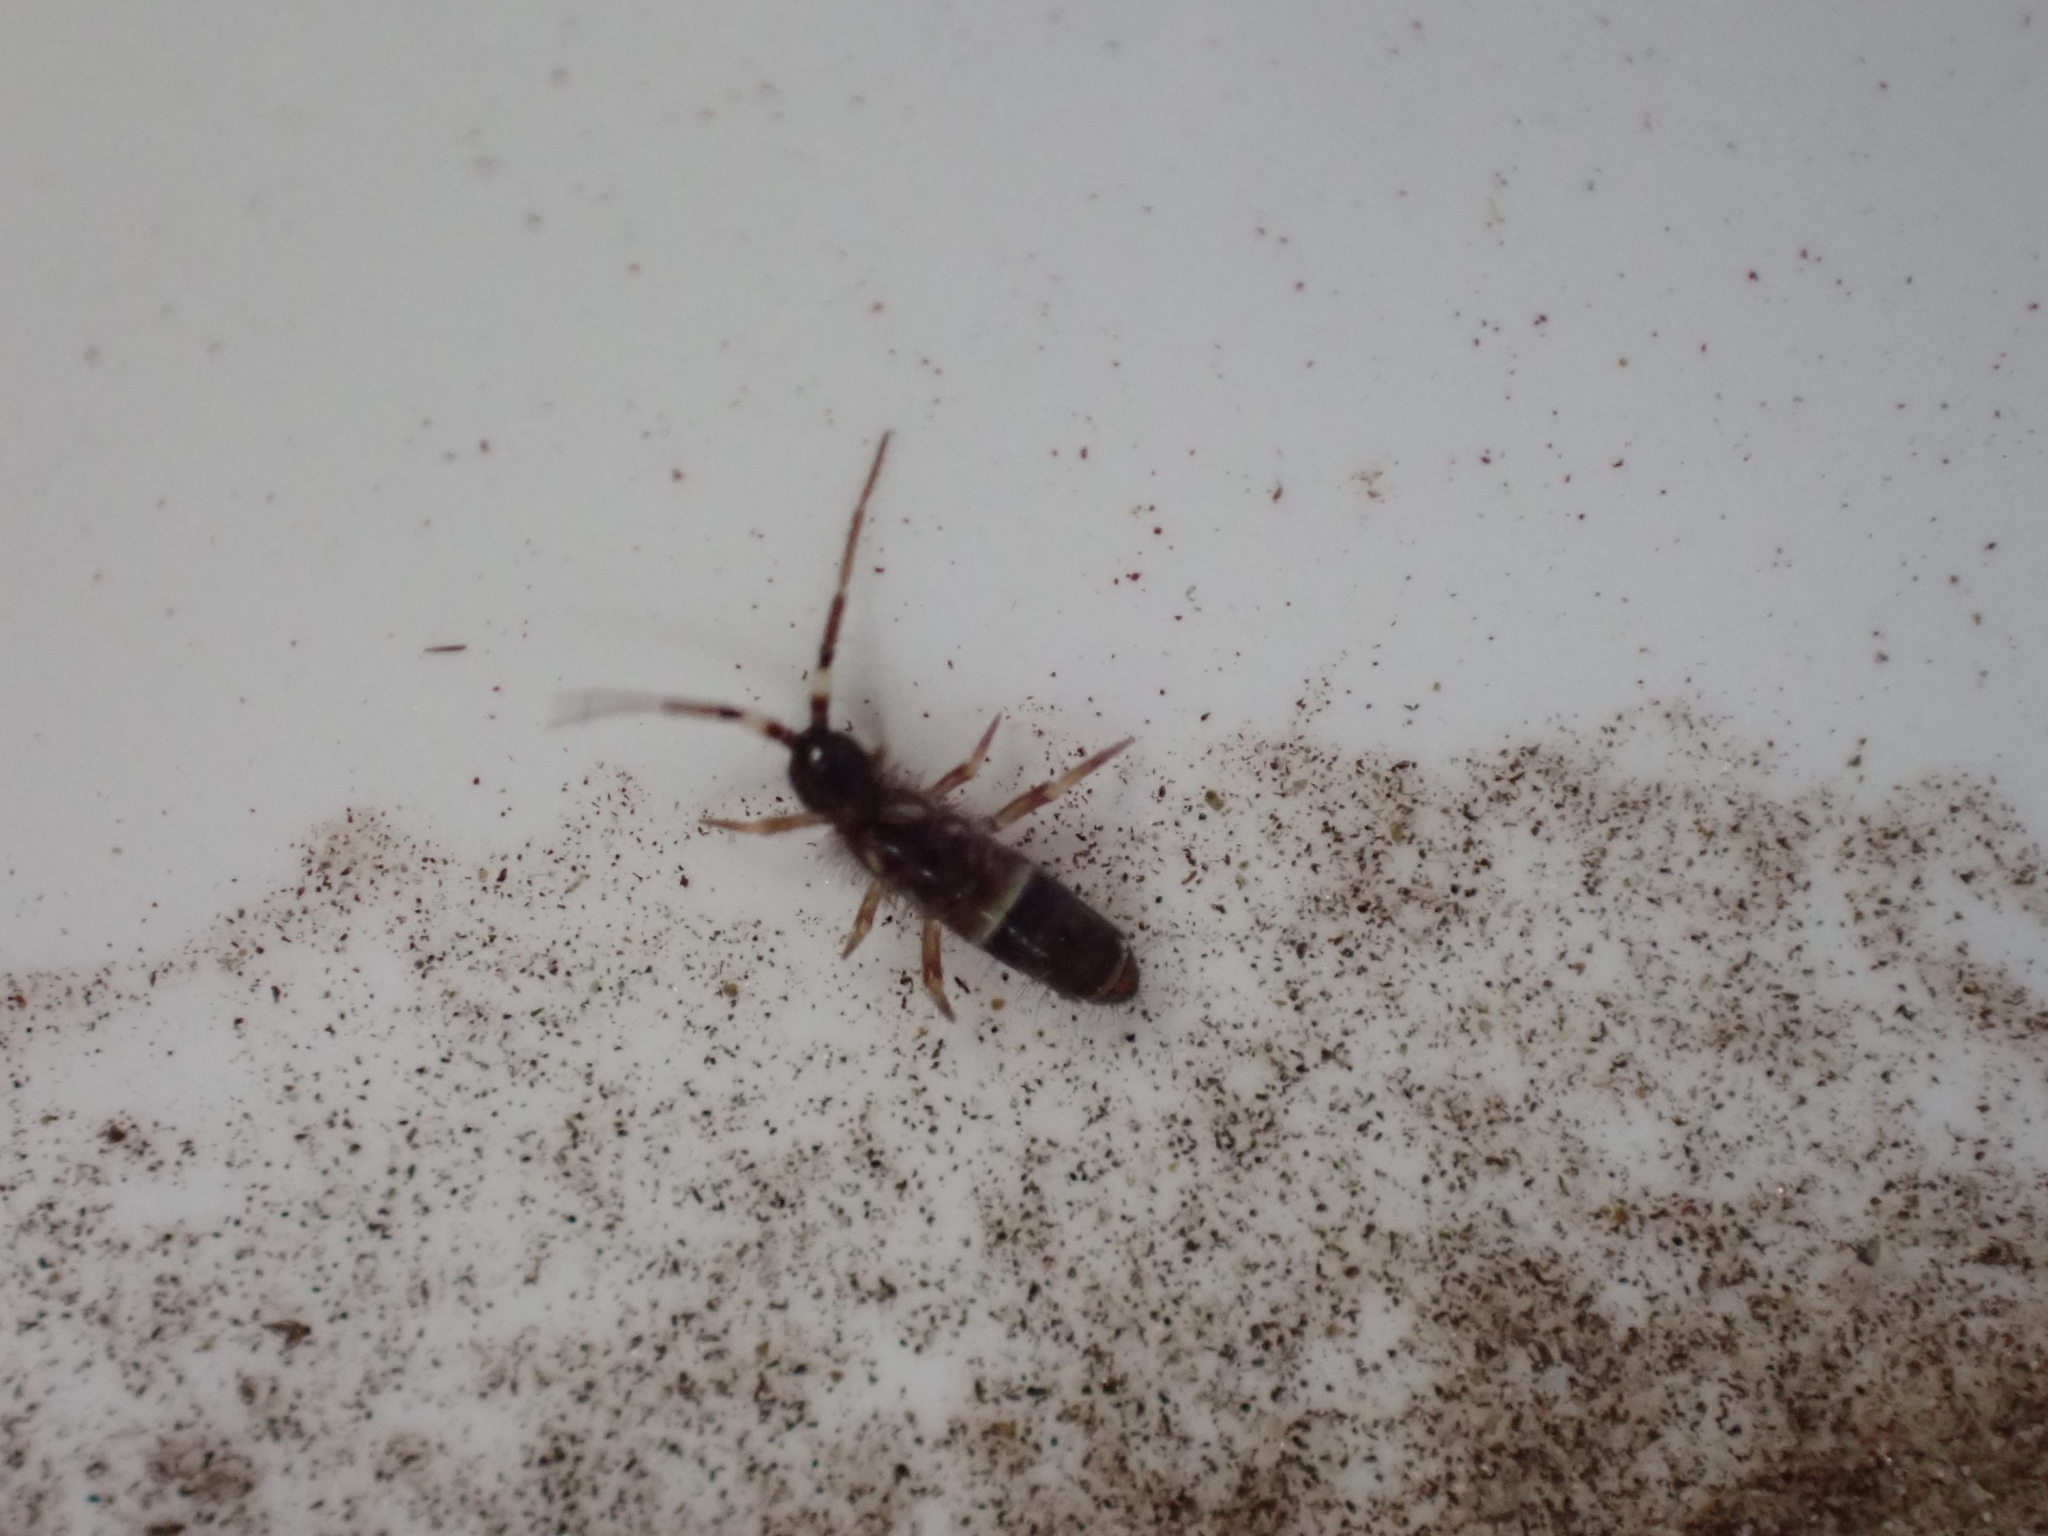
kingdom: Animalia
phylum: Arthropoda
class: Collembola
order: Entomobryomorpha
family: Orchesellidae
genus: Orchesella
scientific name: Orchesella cincta
